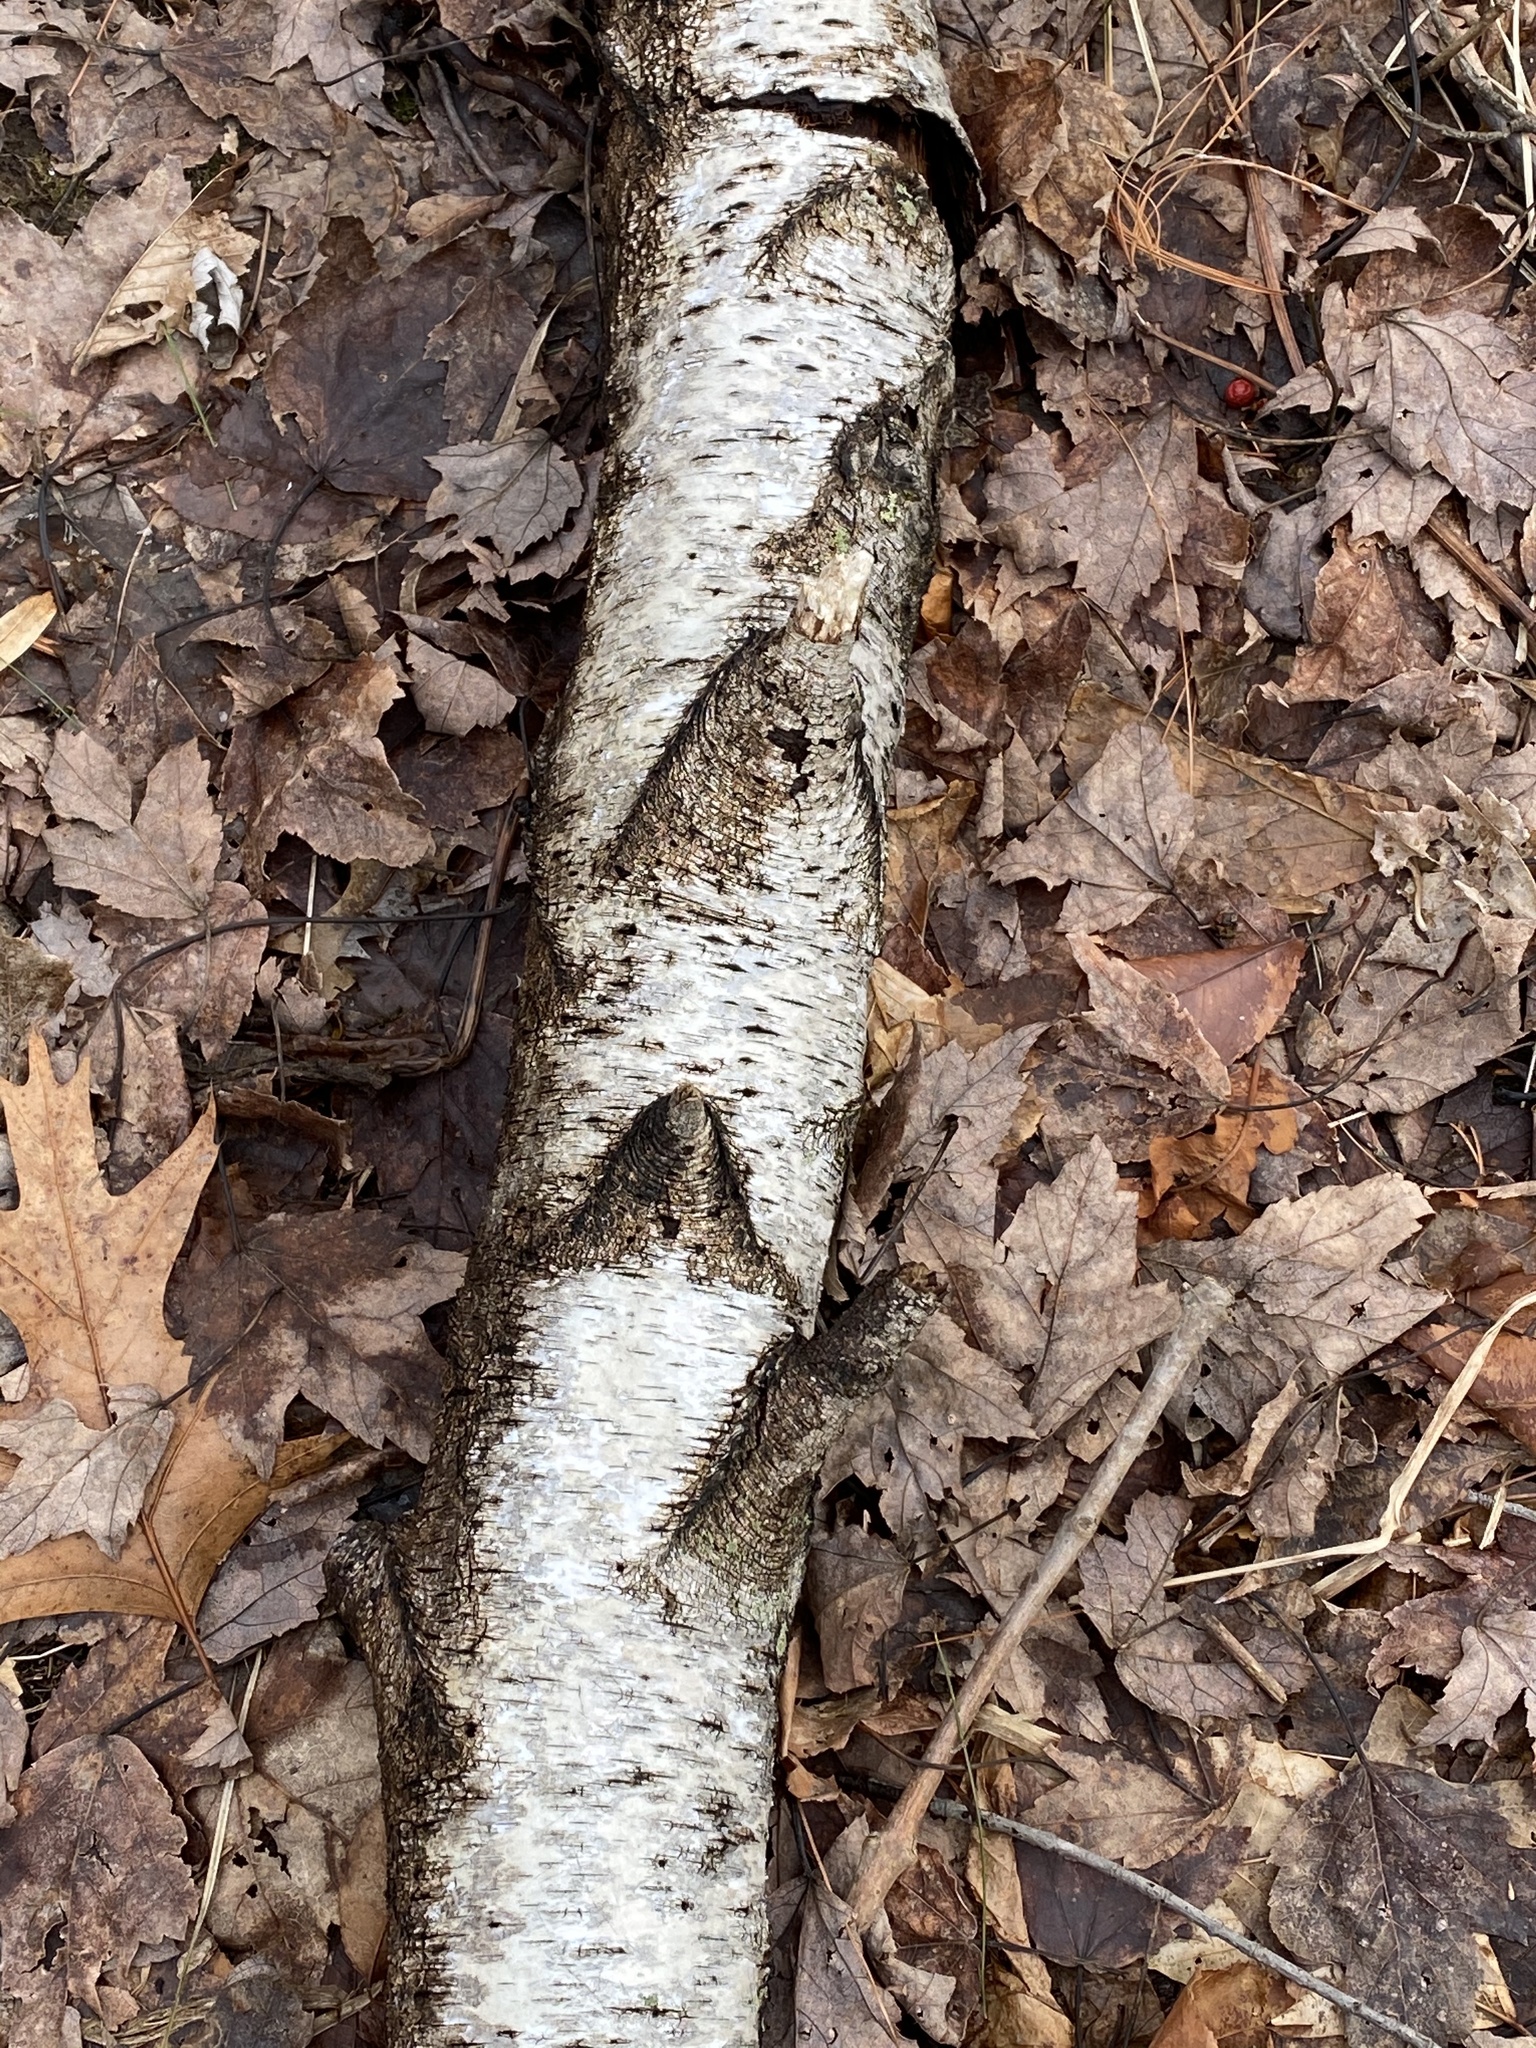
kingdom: Plantae
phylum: Tracheophyta
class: Magnoliopsida
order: Fagales
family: Betulaceae
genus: Betula
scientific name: Betula populifolia
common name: Fire birch
